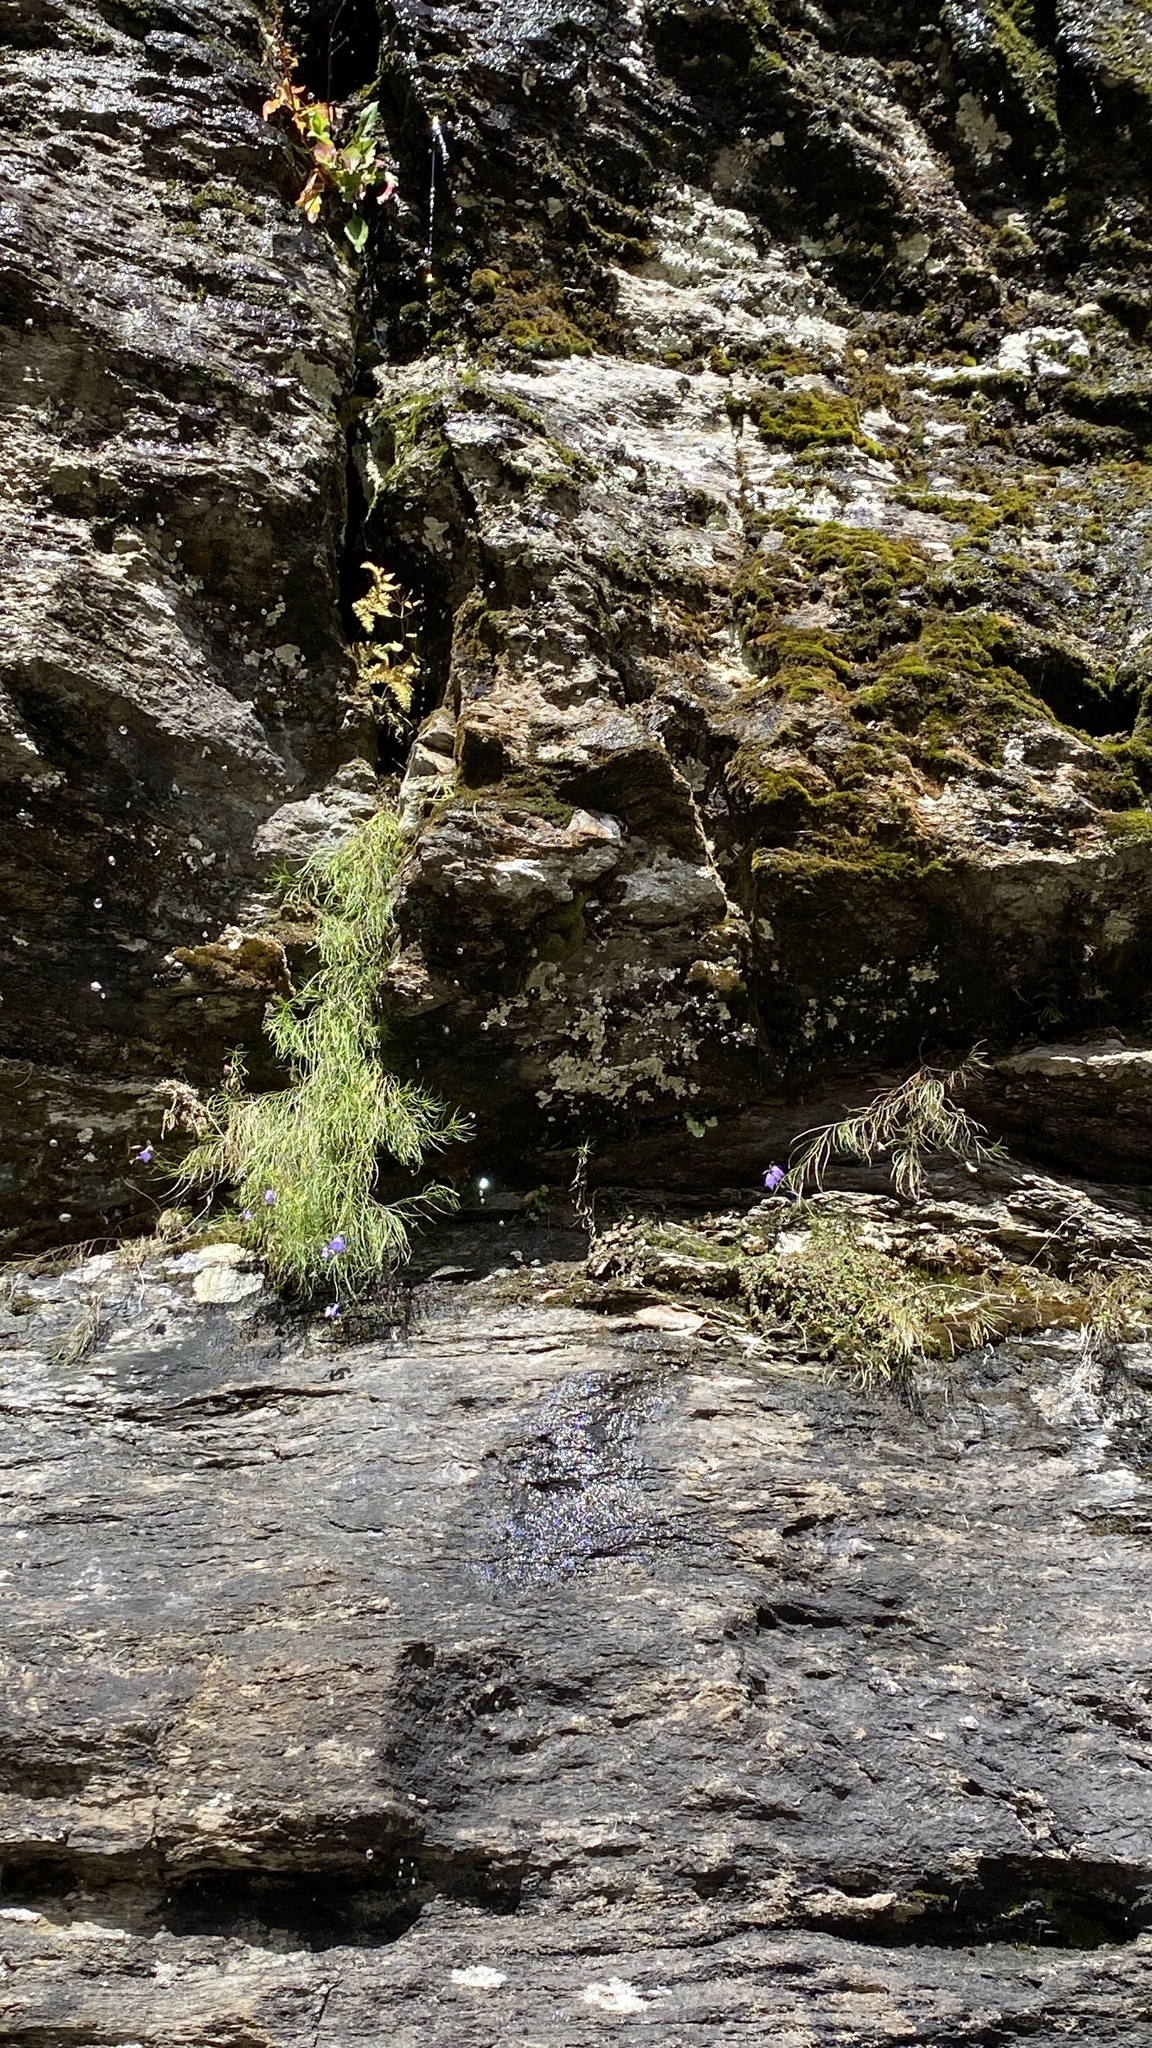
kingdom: Plantae
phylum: Tracheophyta
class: Magnoliopsida
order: Asterales
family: Campanulaceae
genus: Campanula
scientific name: Campanula intercedens
